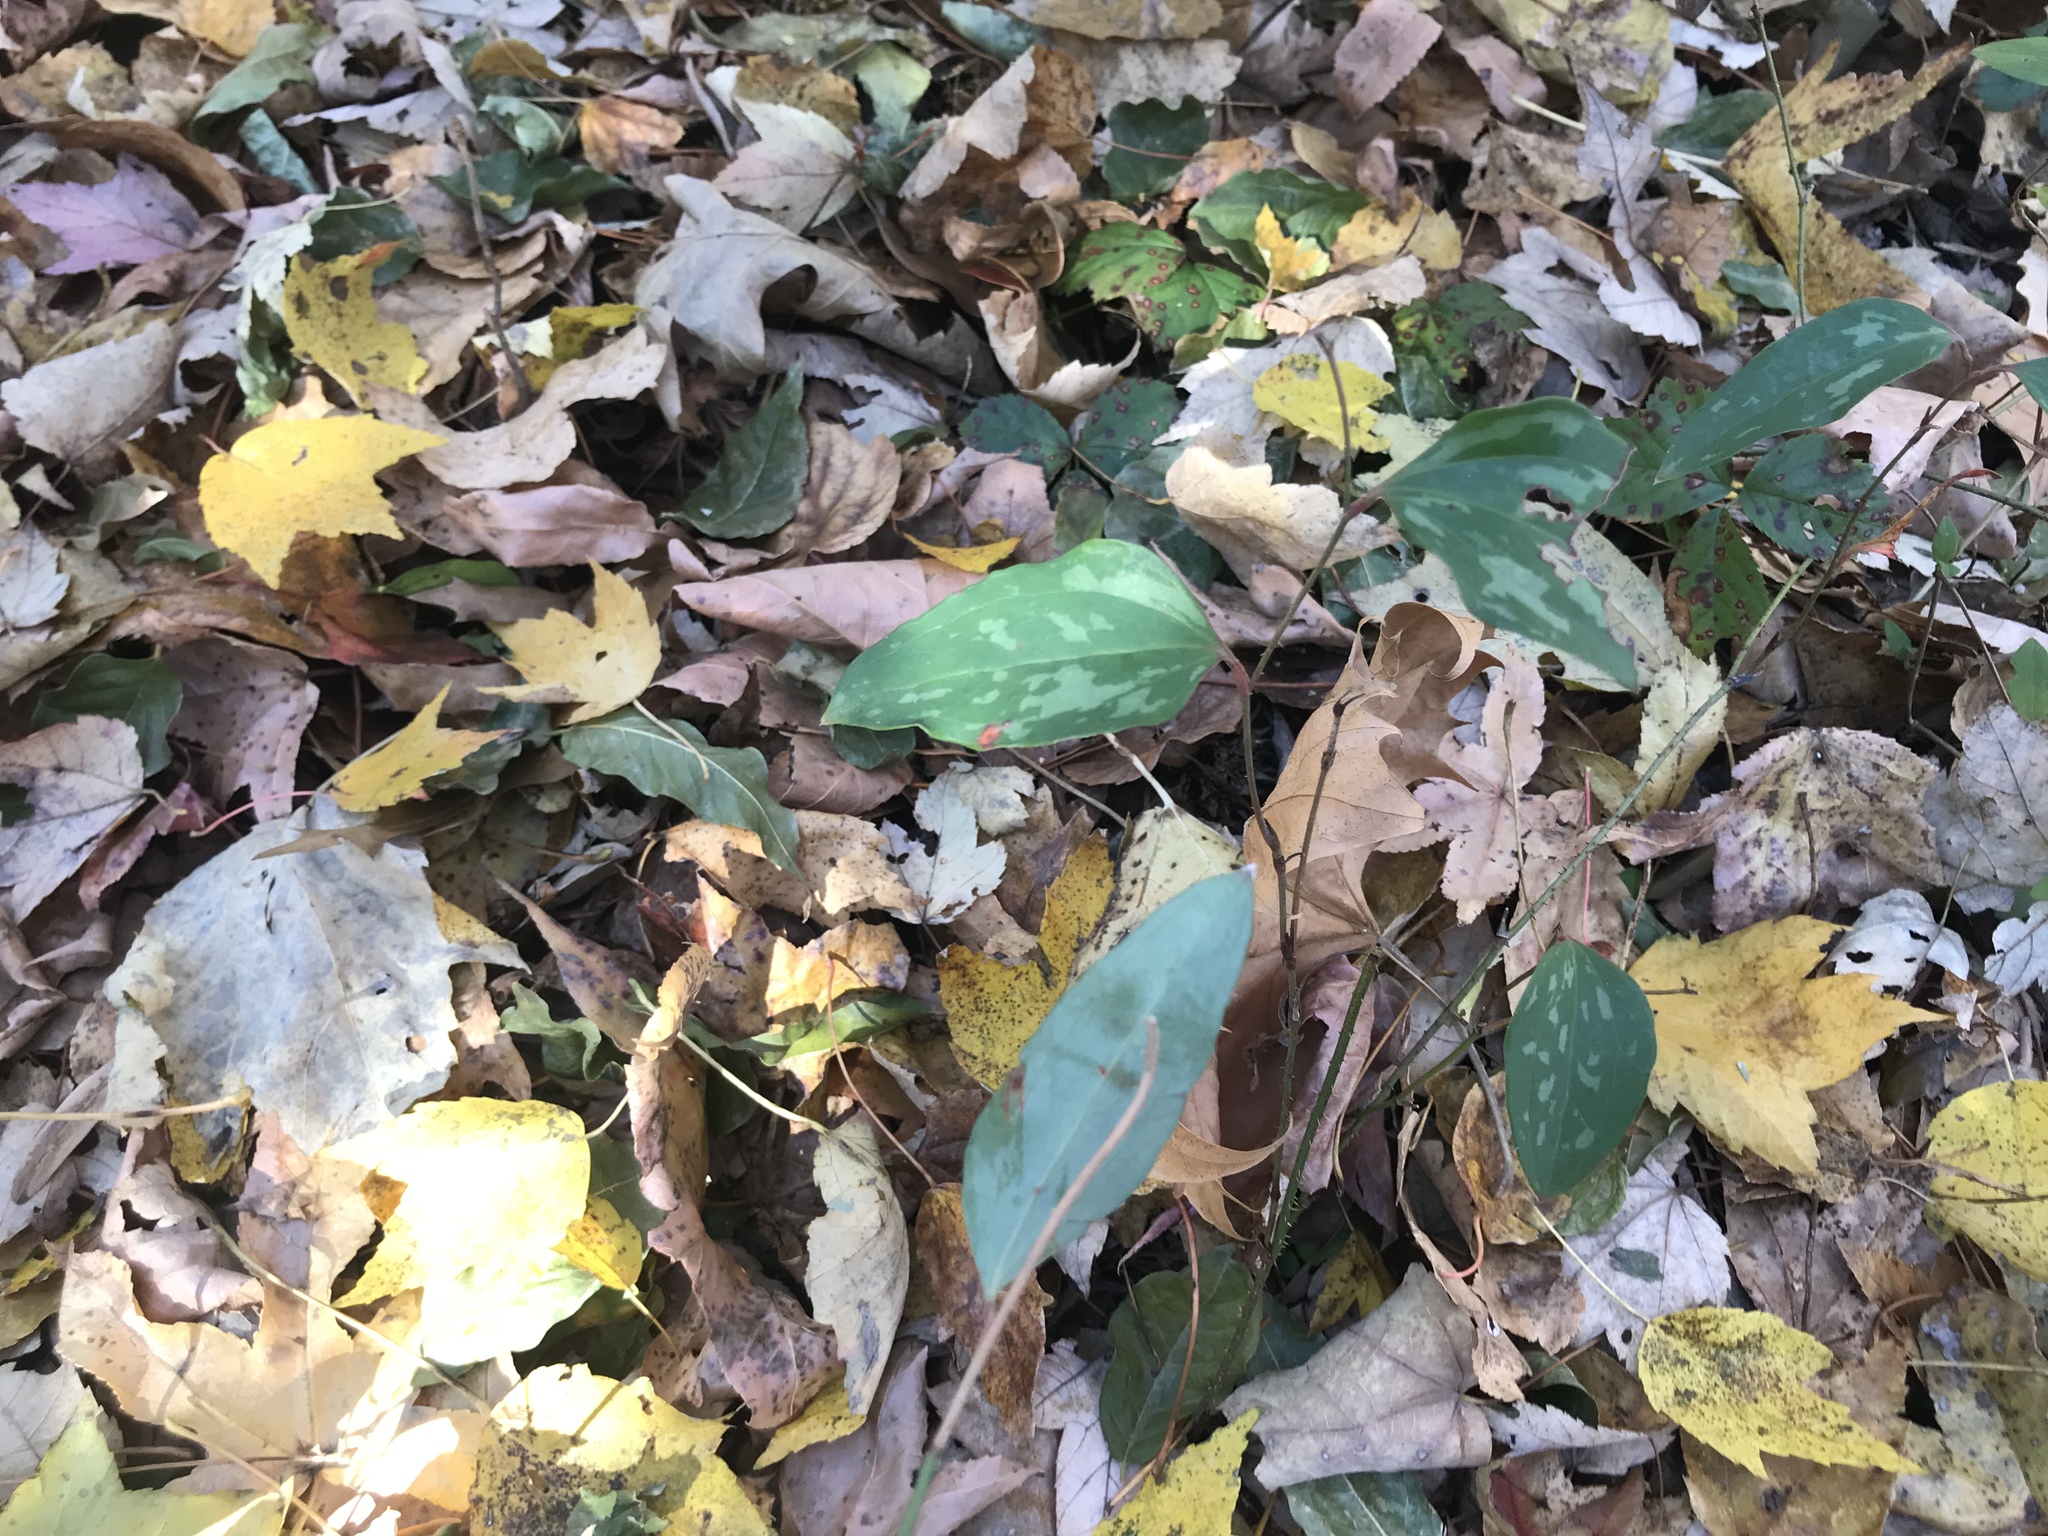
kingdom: Plantae
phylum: Tracheophyta
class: Liliopsida
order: Liliales
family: Smilacaceae
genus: Smilax
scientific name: Smilax glauca
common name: Cat greenbrier
